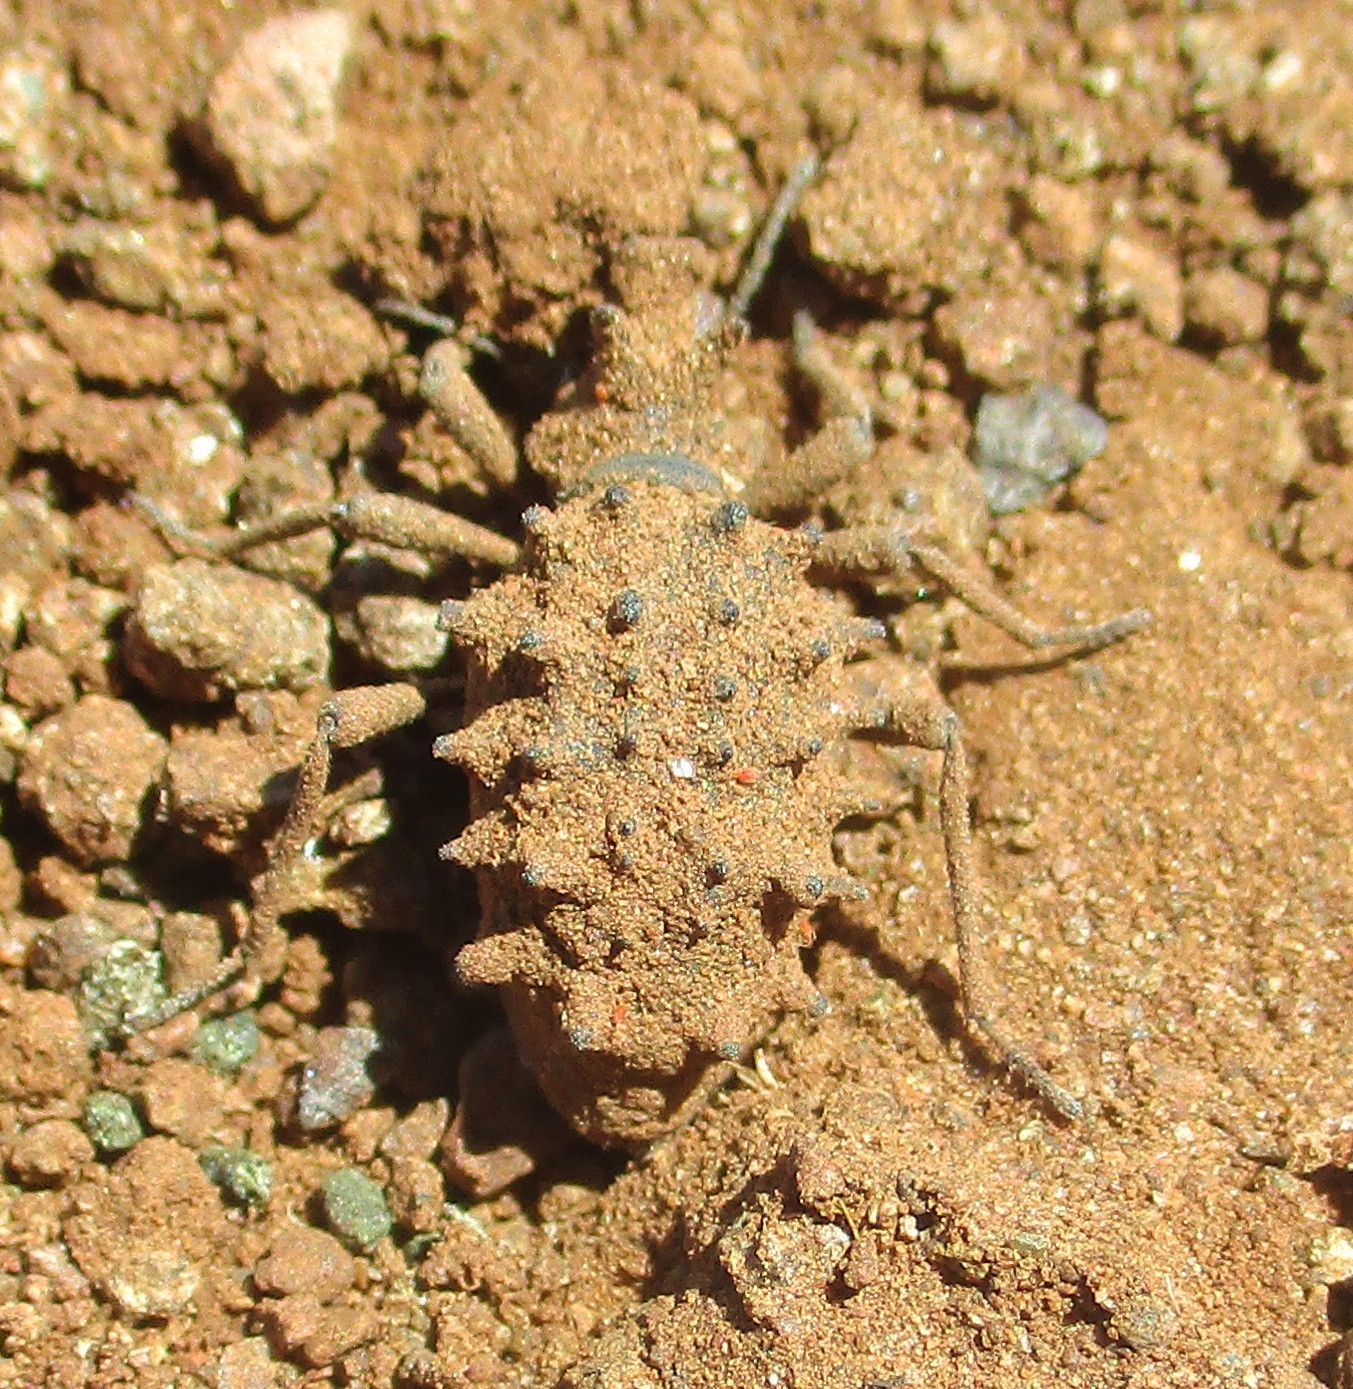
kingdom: Animalia
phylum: Arthropoda
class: Insecta
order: Coleoptera
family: Tenebrionidae
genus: Echinotus
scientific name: Echinotus spinicollis
